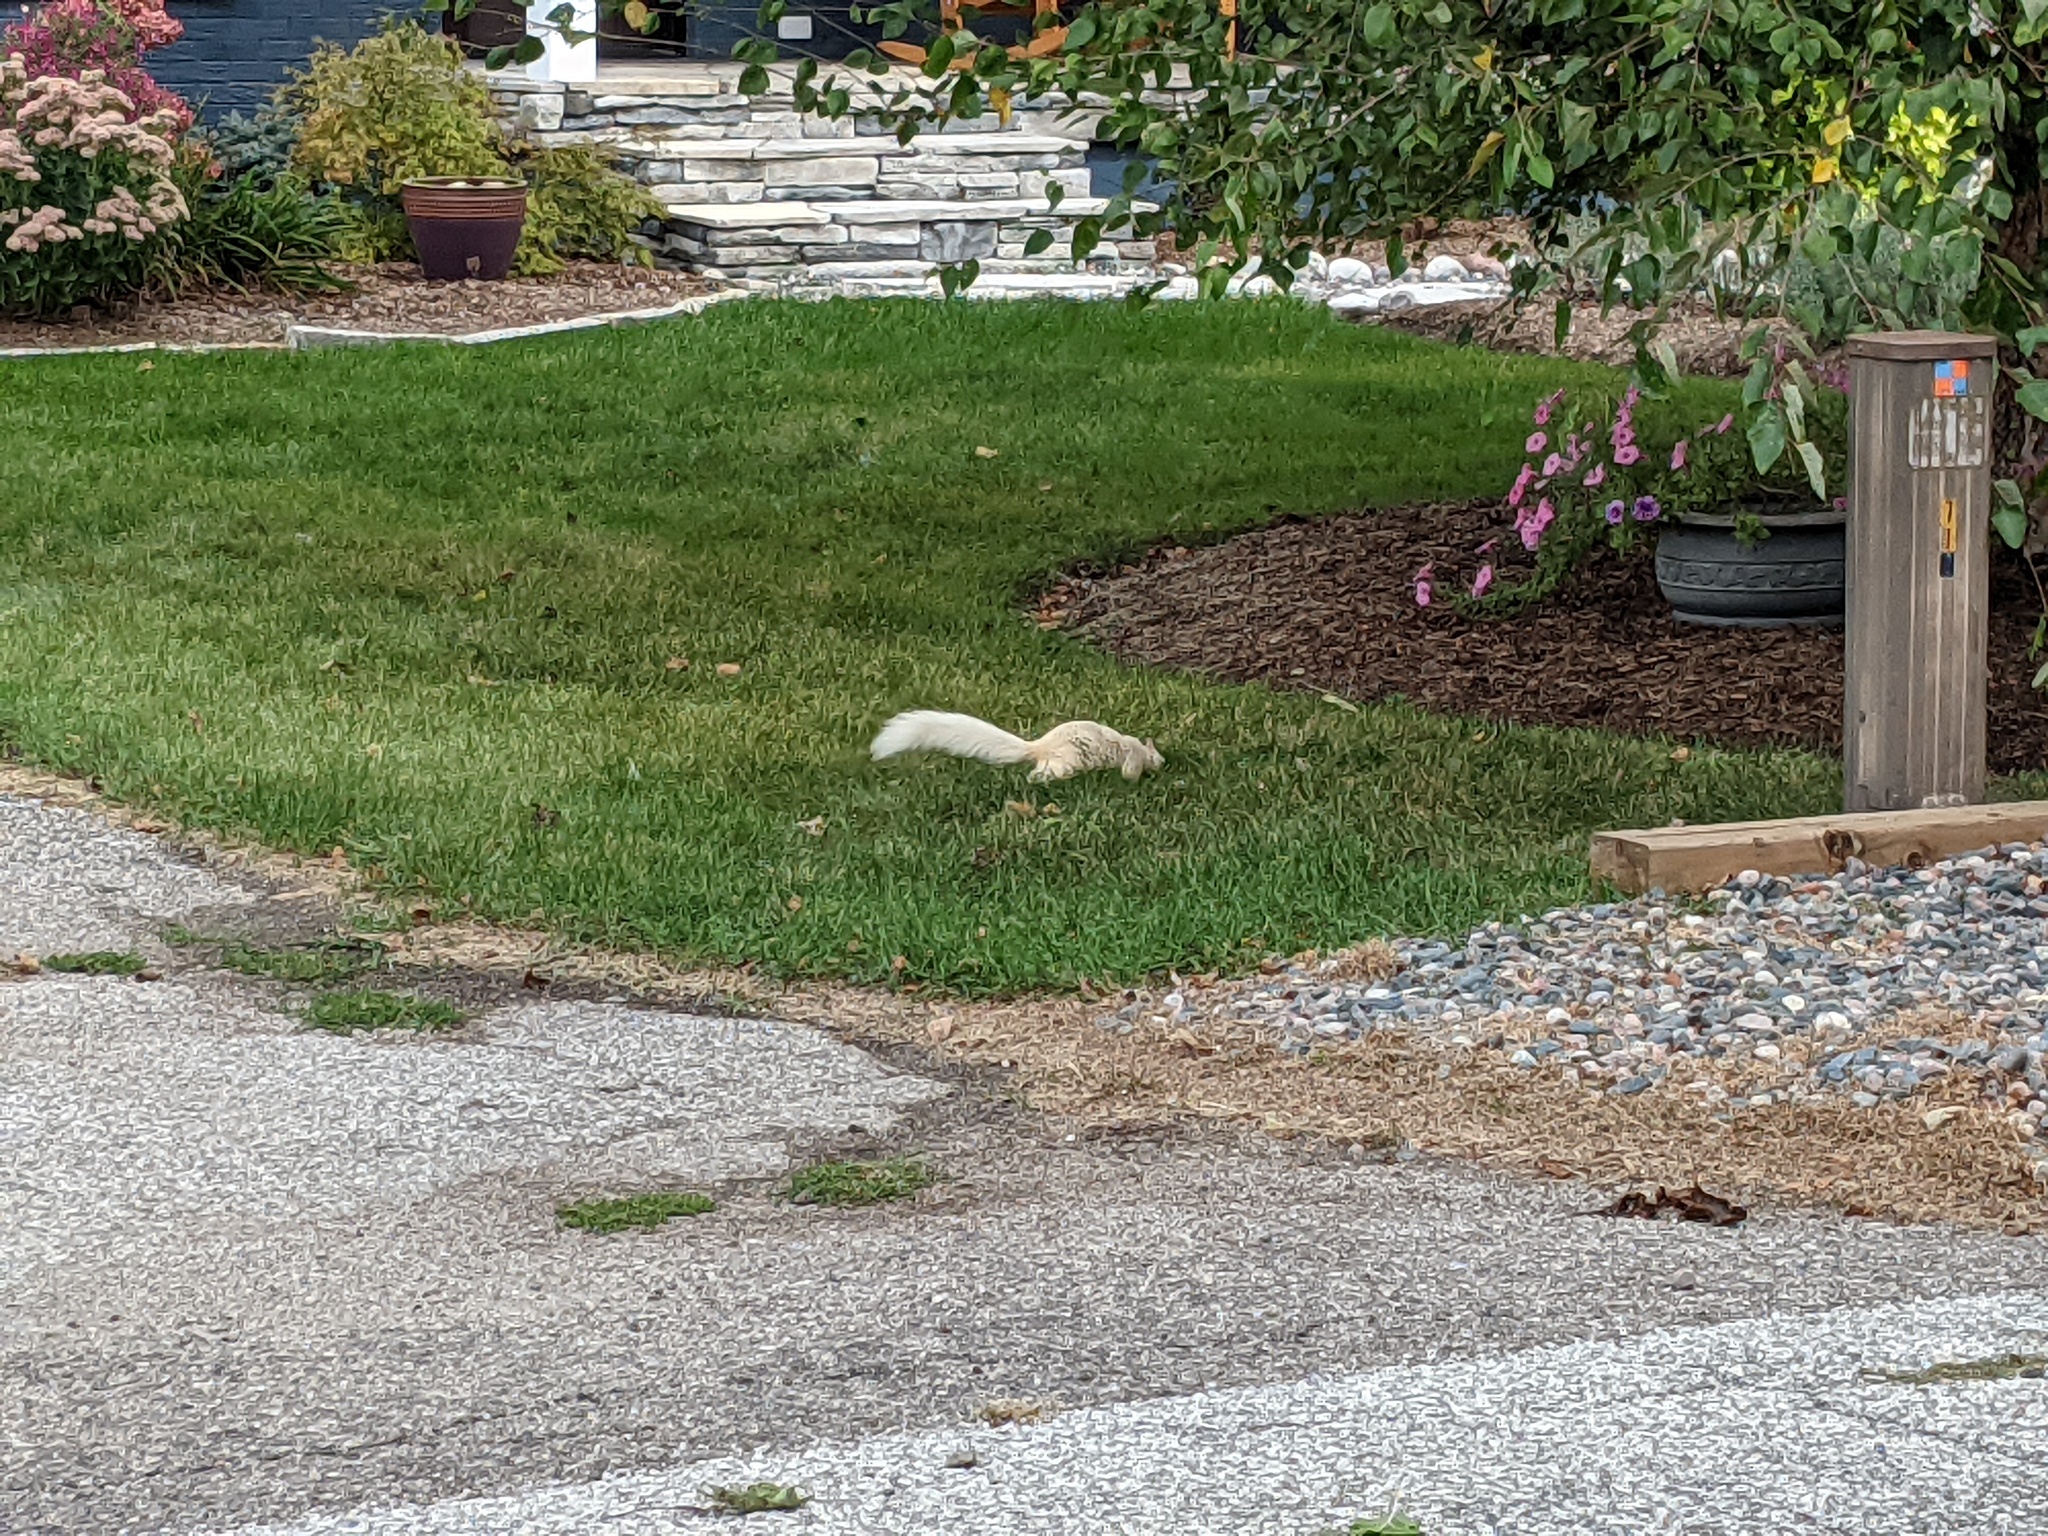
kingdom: Animalia
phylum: Chordata
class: Mammalia
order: Rodentia
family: Sciuridae
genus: Sciurus
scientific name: Sciurus carolinensis
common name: Eastern gray squirrel
